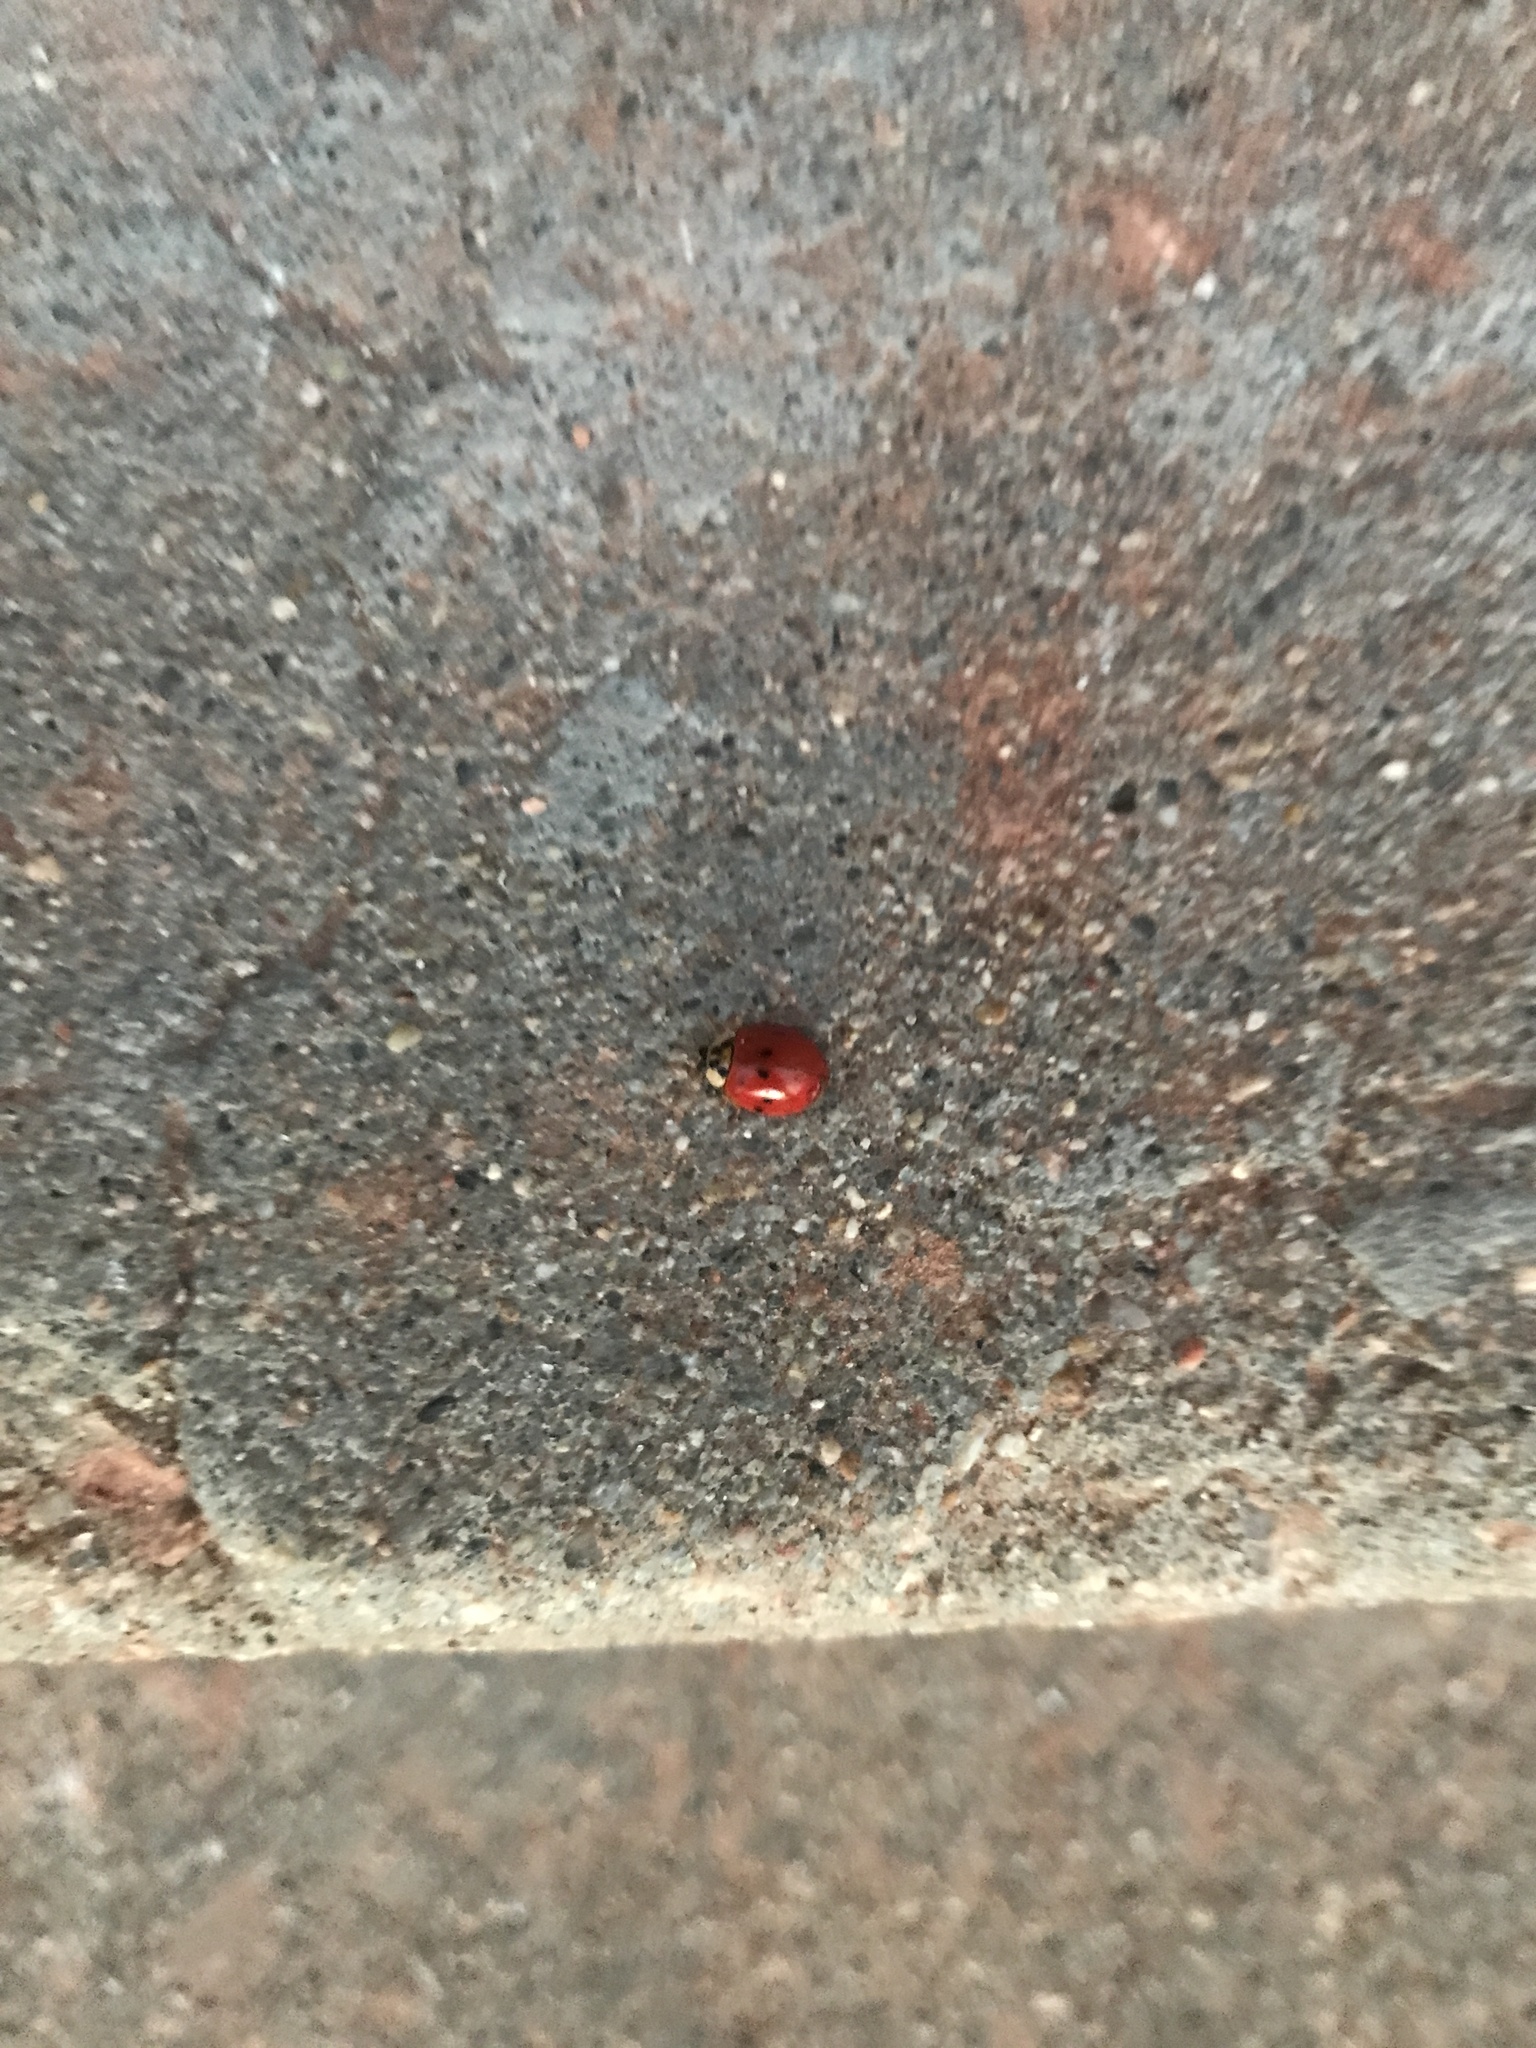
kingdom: Animalia
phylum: Arthropoda
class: Insecta
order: Coleoptera
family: Coccinellidae
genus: Harmonia
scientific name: Harmonia axyridis
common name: Harlequin ladybird
